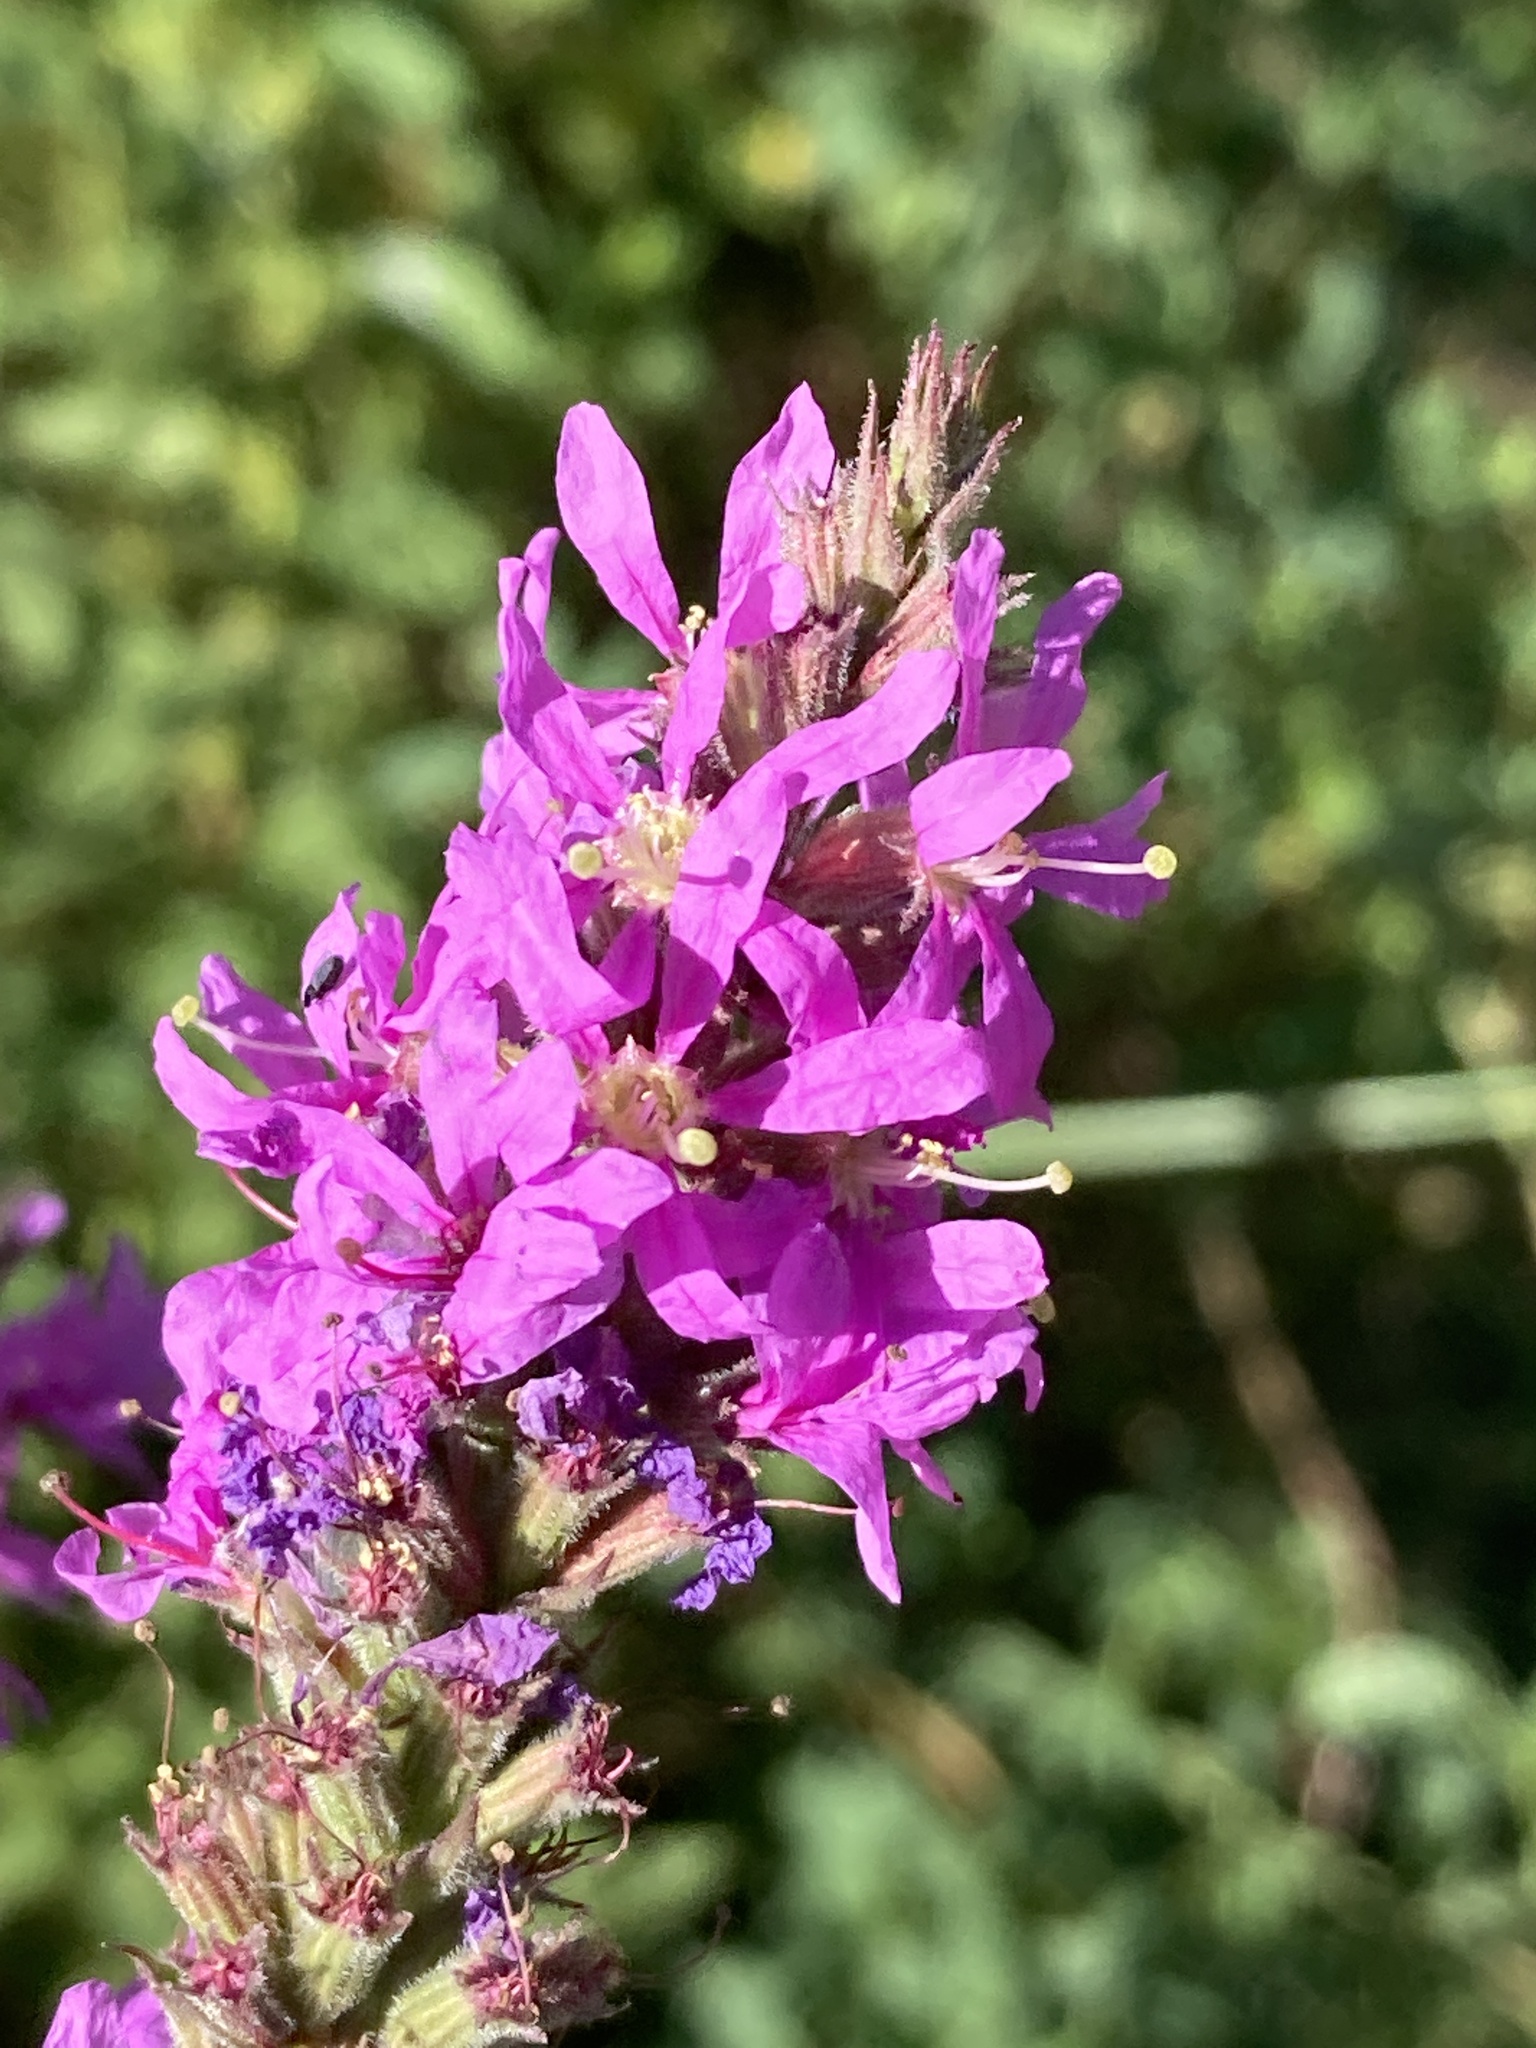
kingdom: Plantae
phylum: Tracheophyta
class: Magnoliopsida
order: Myrtales
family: Lythraceae
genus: Lythrum
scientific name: Lythrum salicaria
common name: Purple loosestrife
